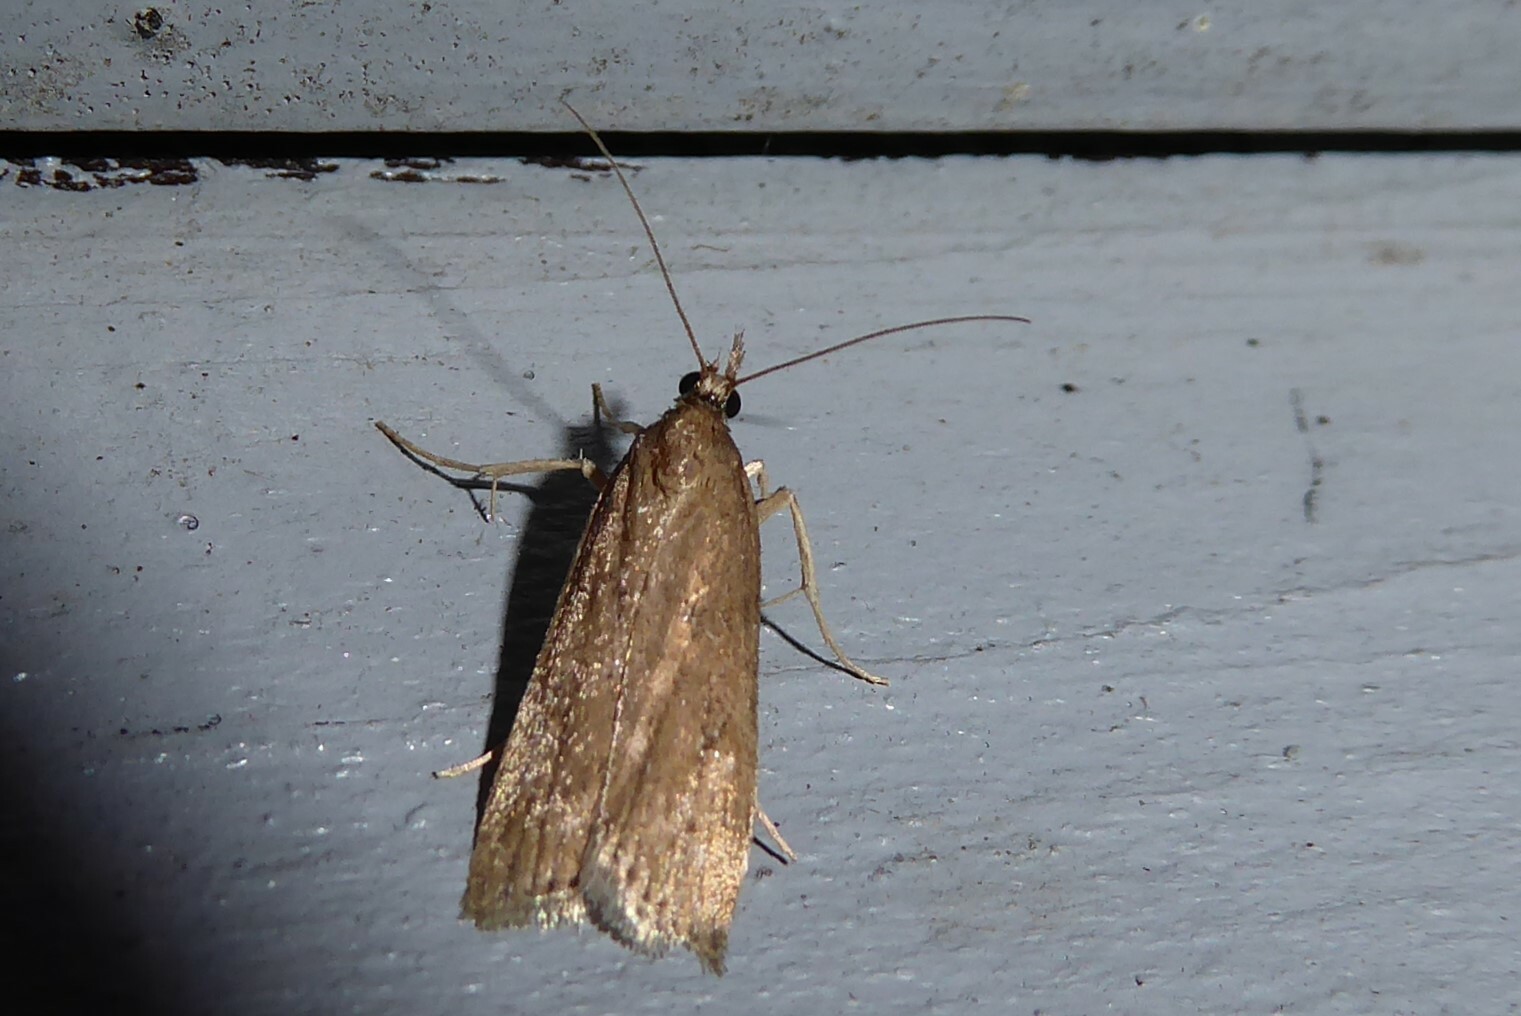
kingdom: Animalia
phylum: Arthropoda
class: Insecta
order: Lepidoptera
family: Crambidae
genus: Eudonia
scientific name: Eudonia octophora
